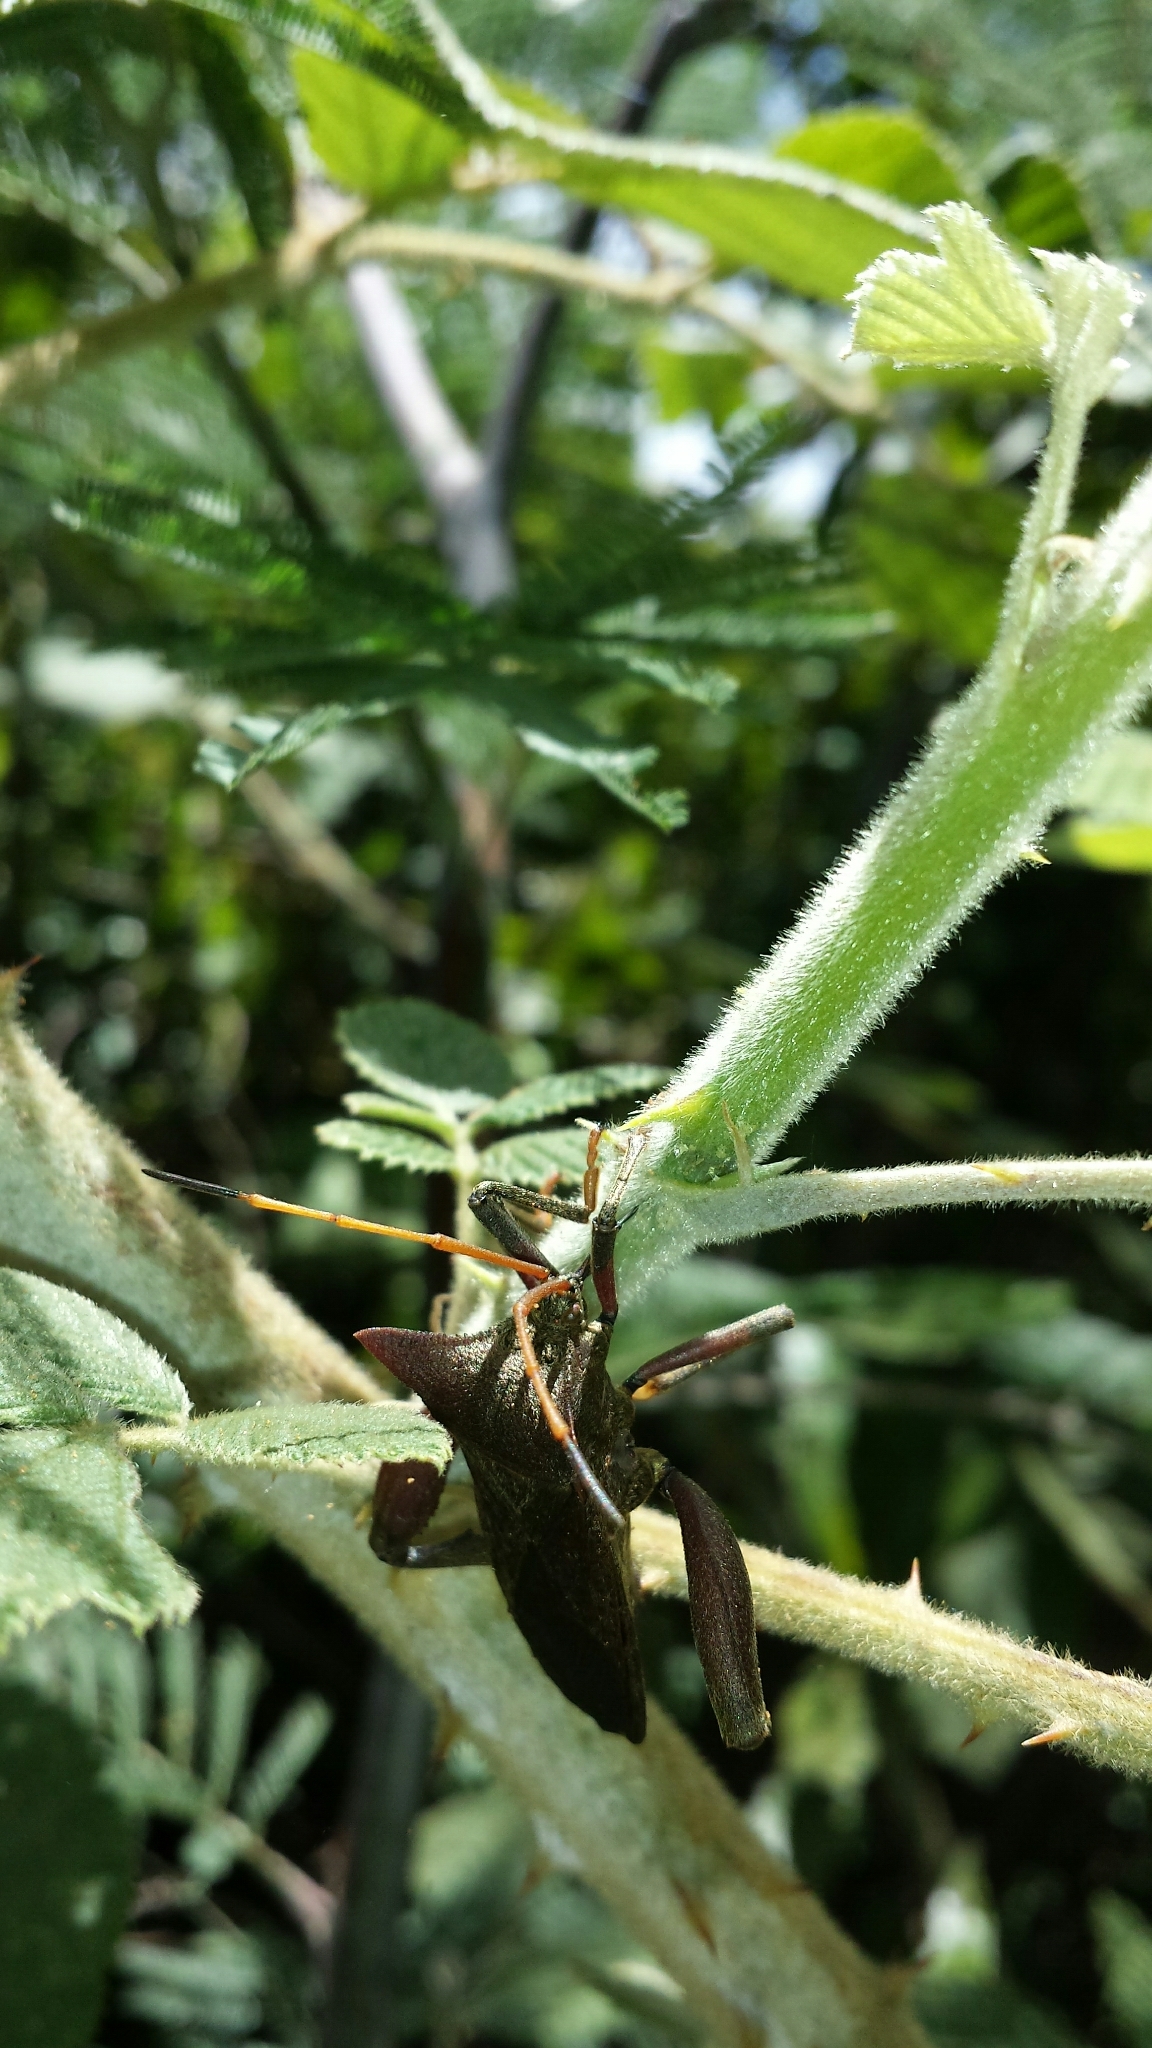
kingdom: Animalia
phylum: Arthropoda
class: Insecta
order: Hemiptera
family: Coreidae
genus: Dianomictis
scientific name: Dianomictis expansa
